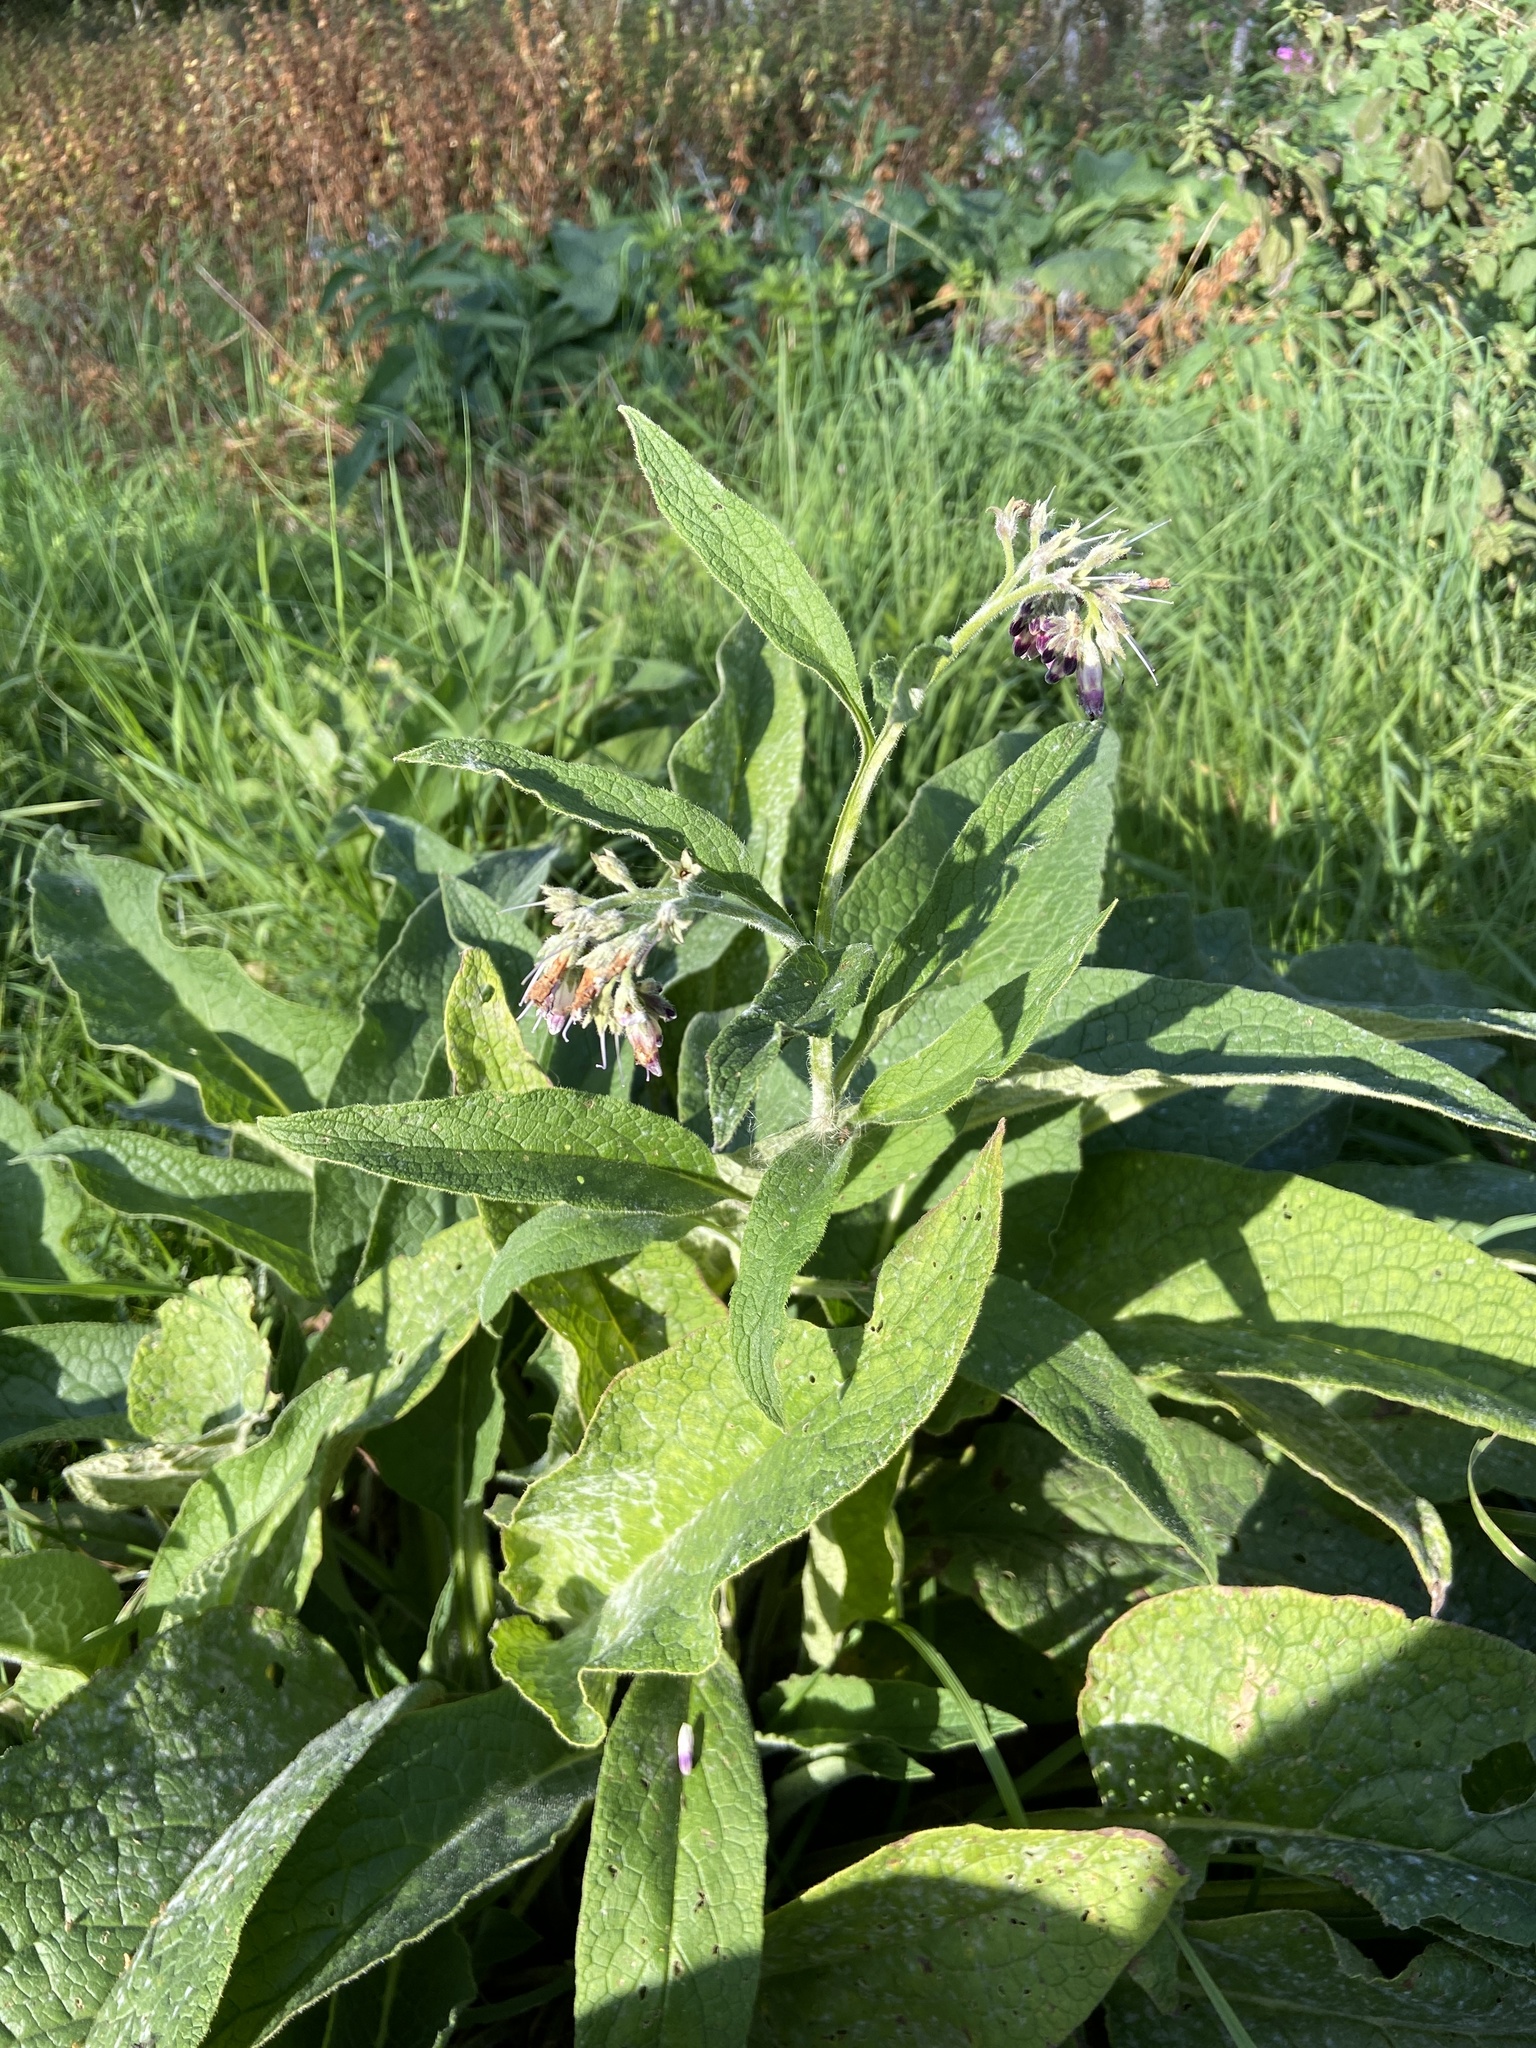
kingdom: Plantae
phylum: Tracheophyta
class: Magnoliopsida
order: Boraginales
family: Boraginaceae
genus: Symphytum
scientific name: Symphytum officinale
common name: Common comfrey
